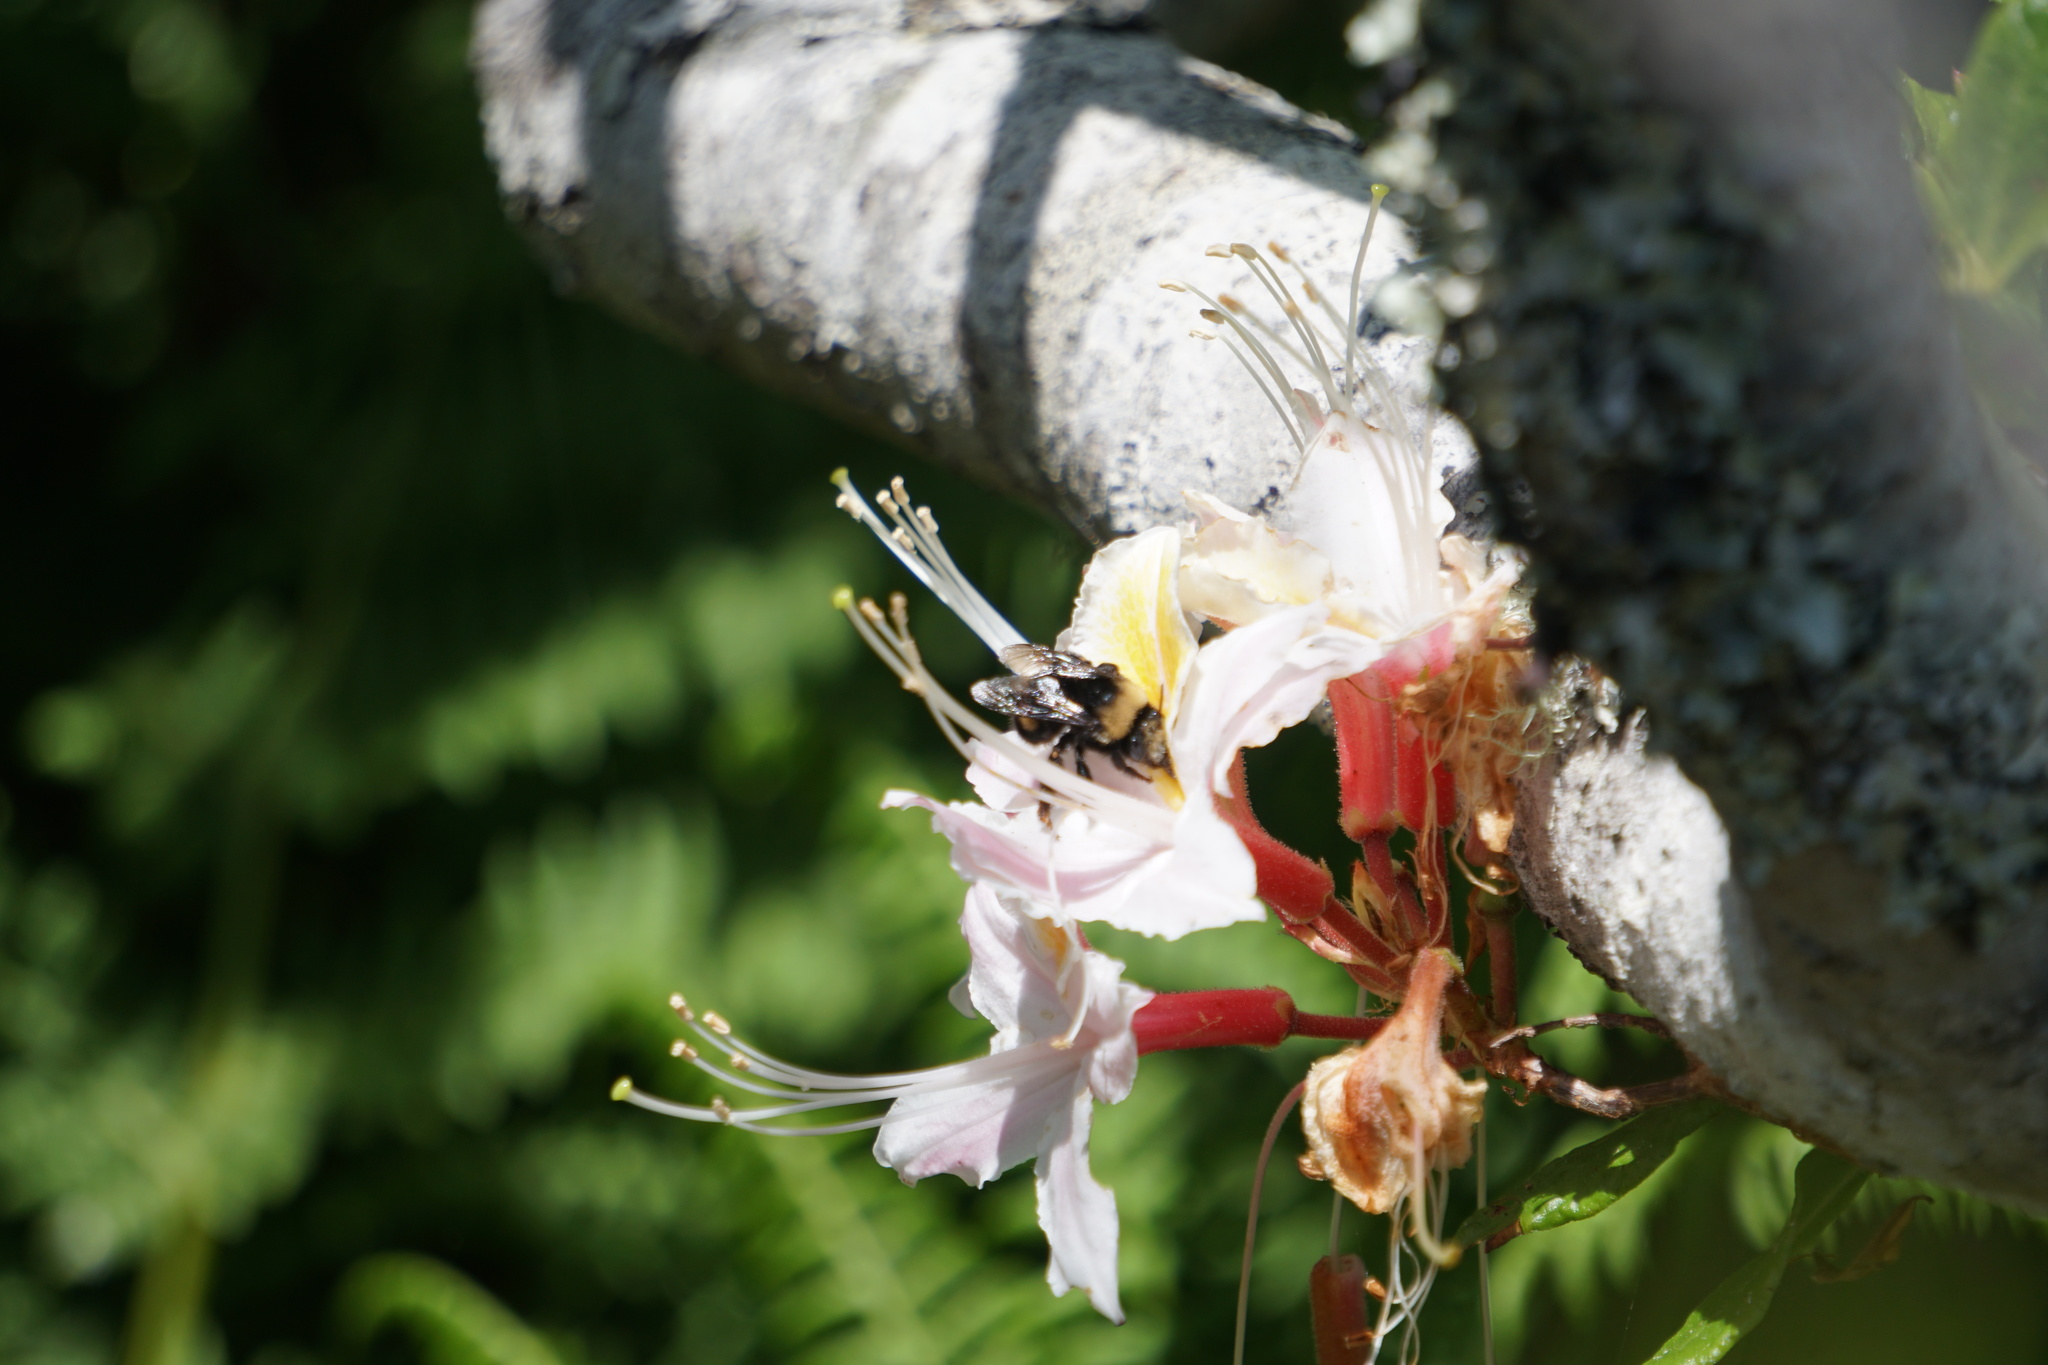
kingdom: Animalia
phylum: Arthropoda
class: Insecta
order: Hymenoptera
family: Apidae
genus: Anthophora
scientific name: Anthophora bomboides
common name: Bumble-bee-mimic digger bee
